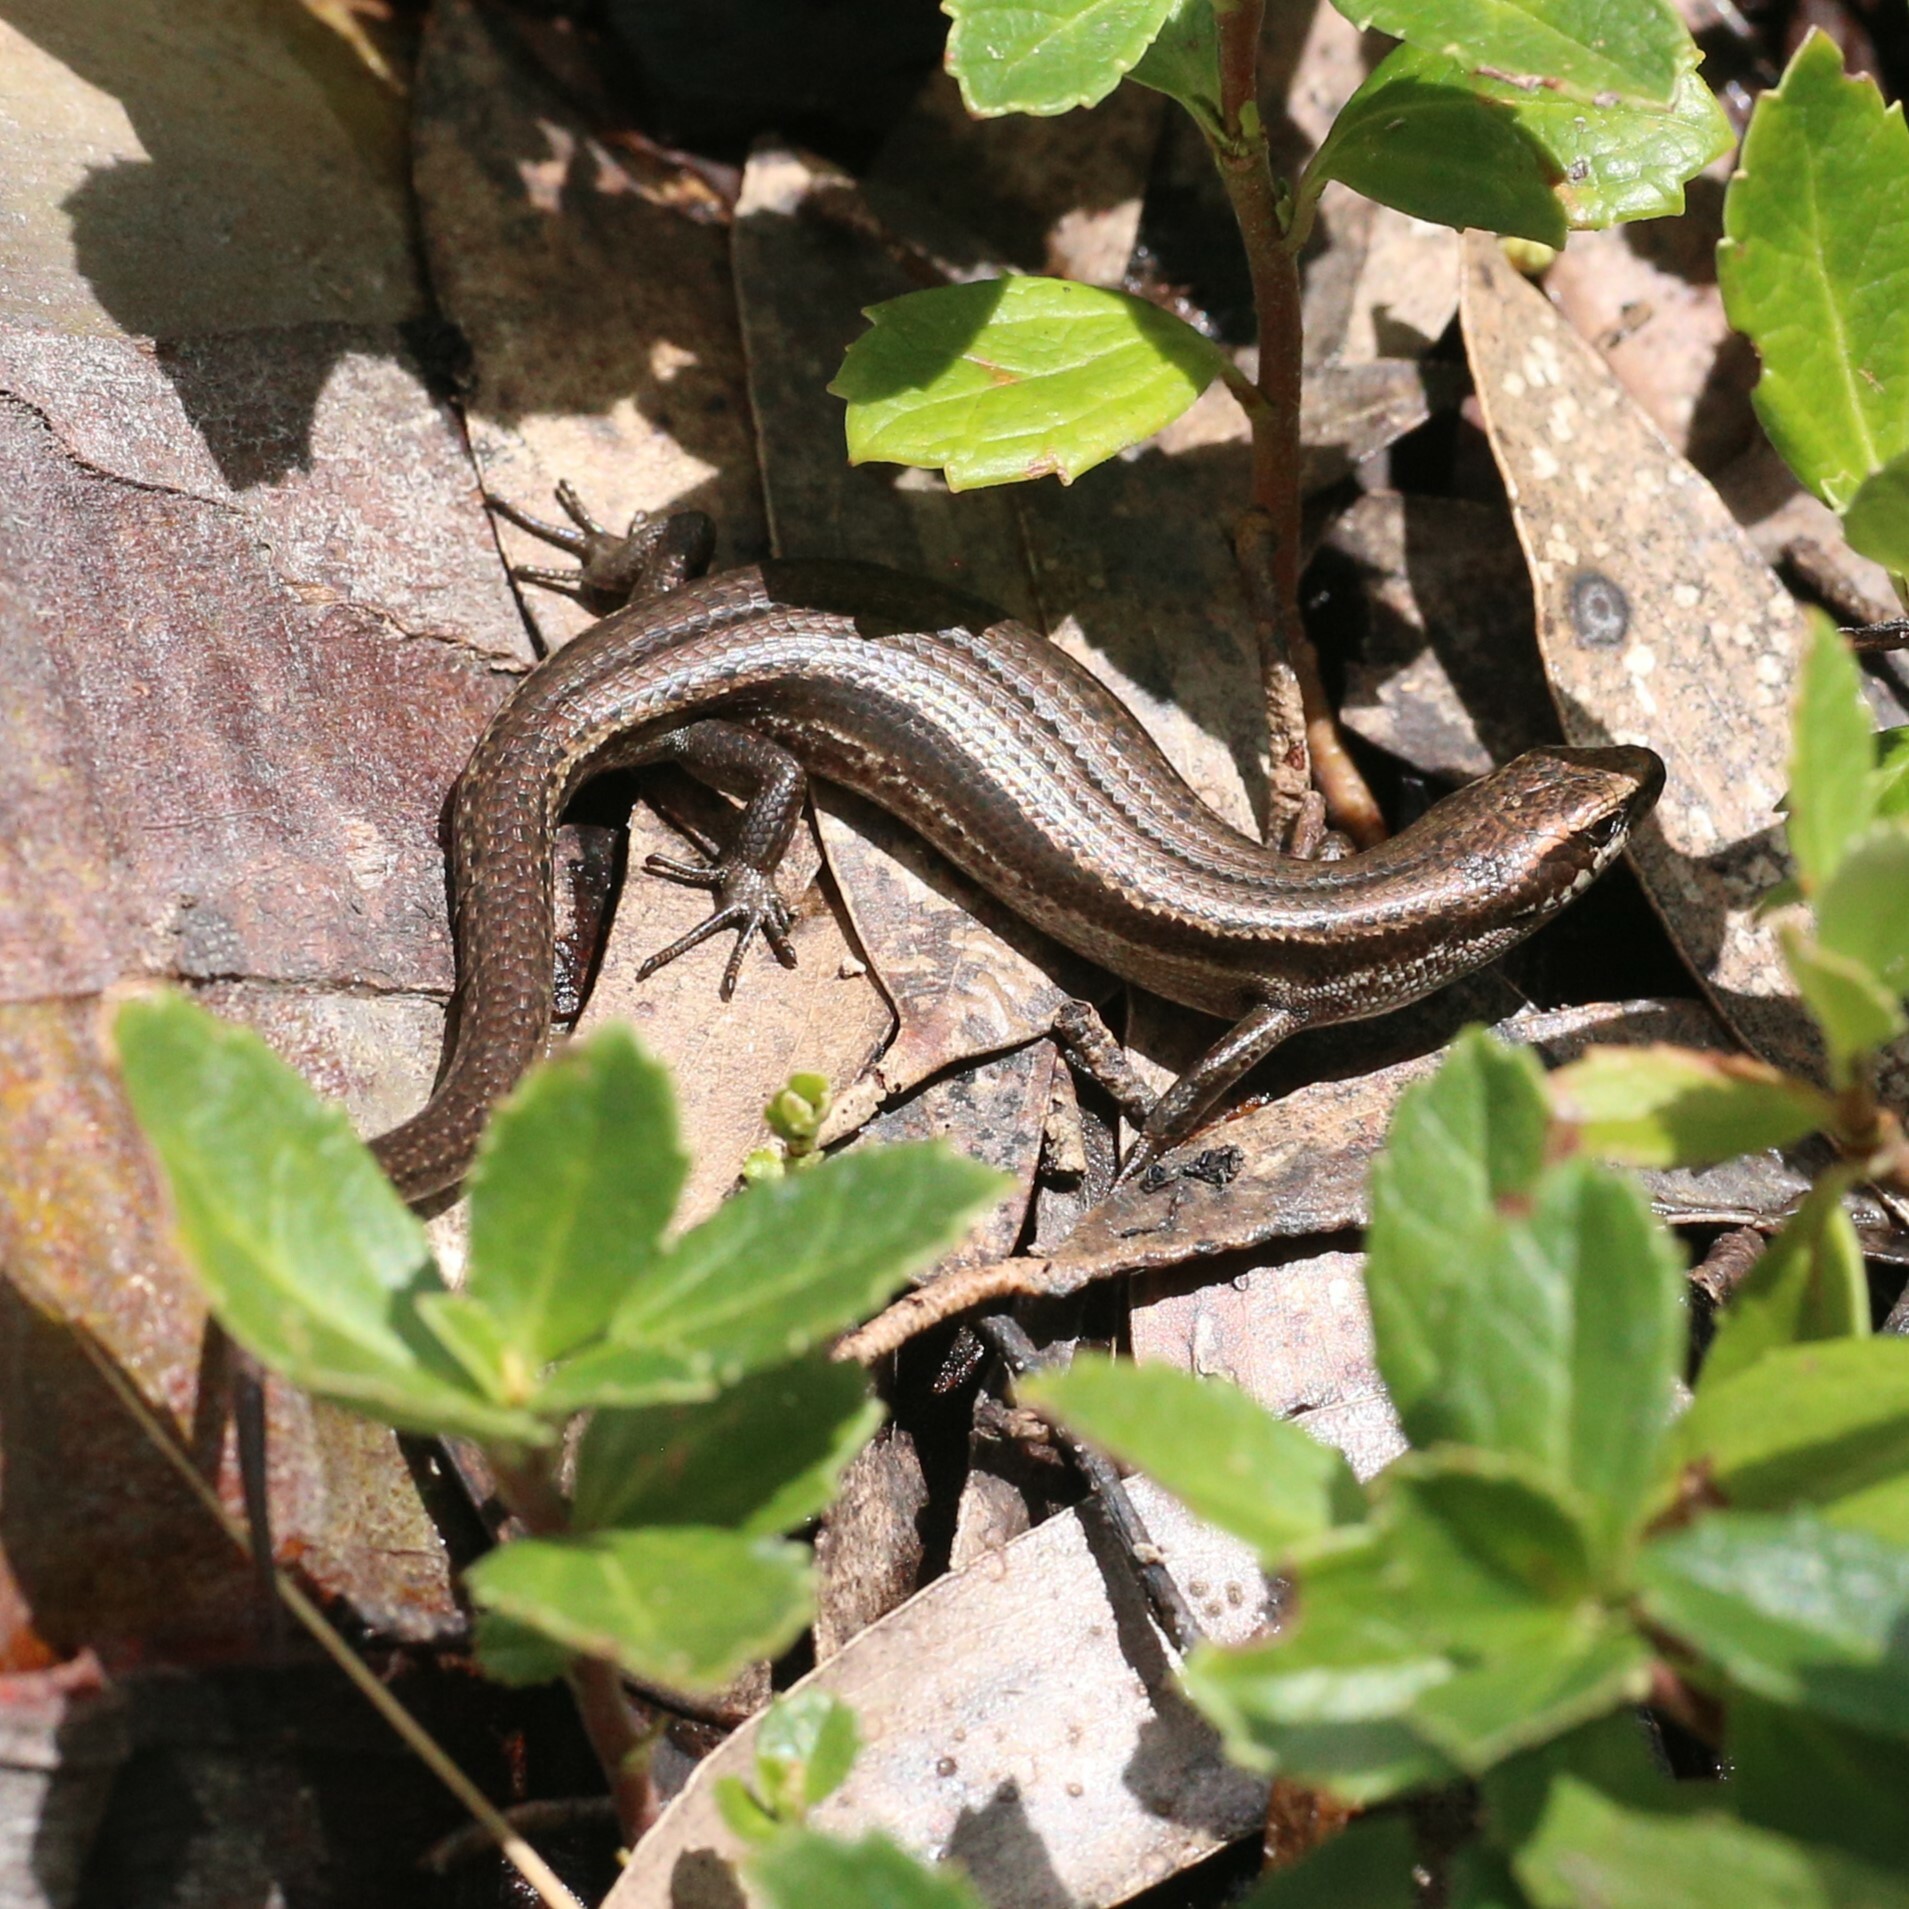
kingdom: Animalia
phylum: Chordata
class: Squamata
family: Scincidae
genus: Pseudemoia
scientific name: Pseudemoia entrecasteauxii
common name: Entrecasteaux's skink
